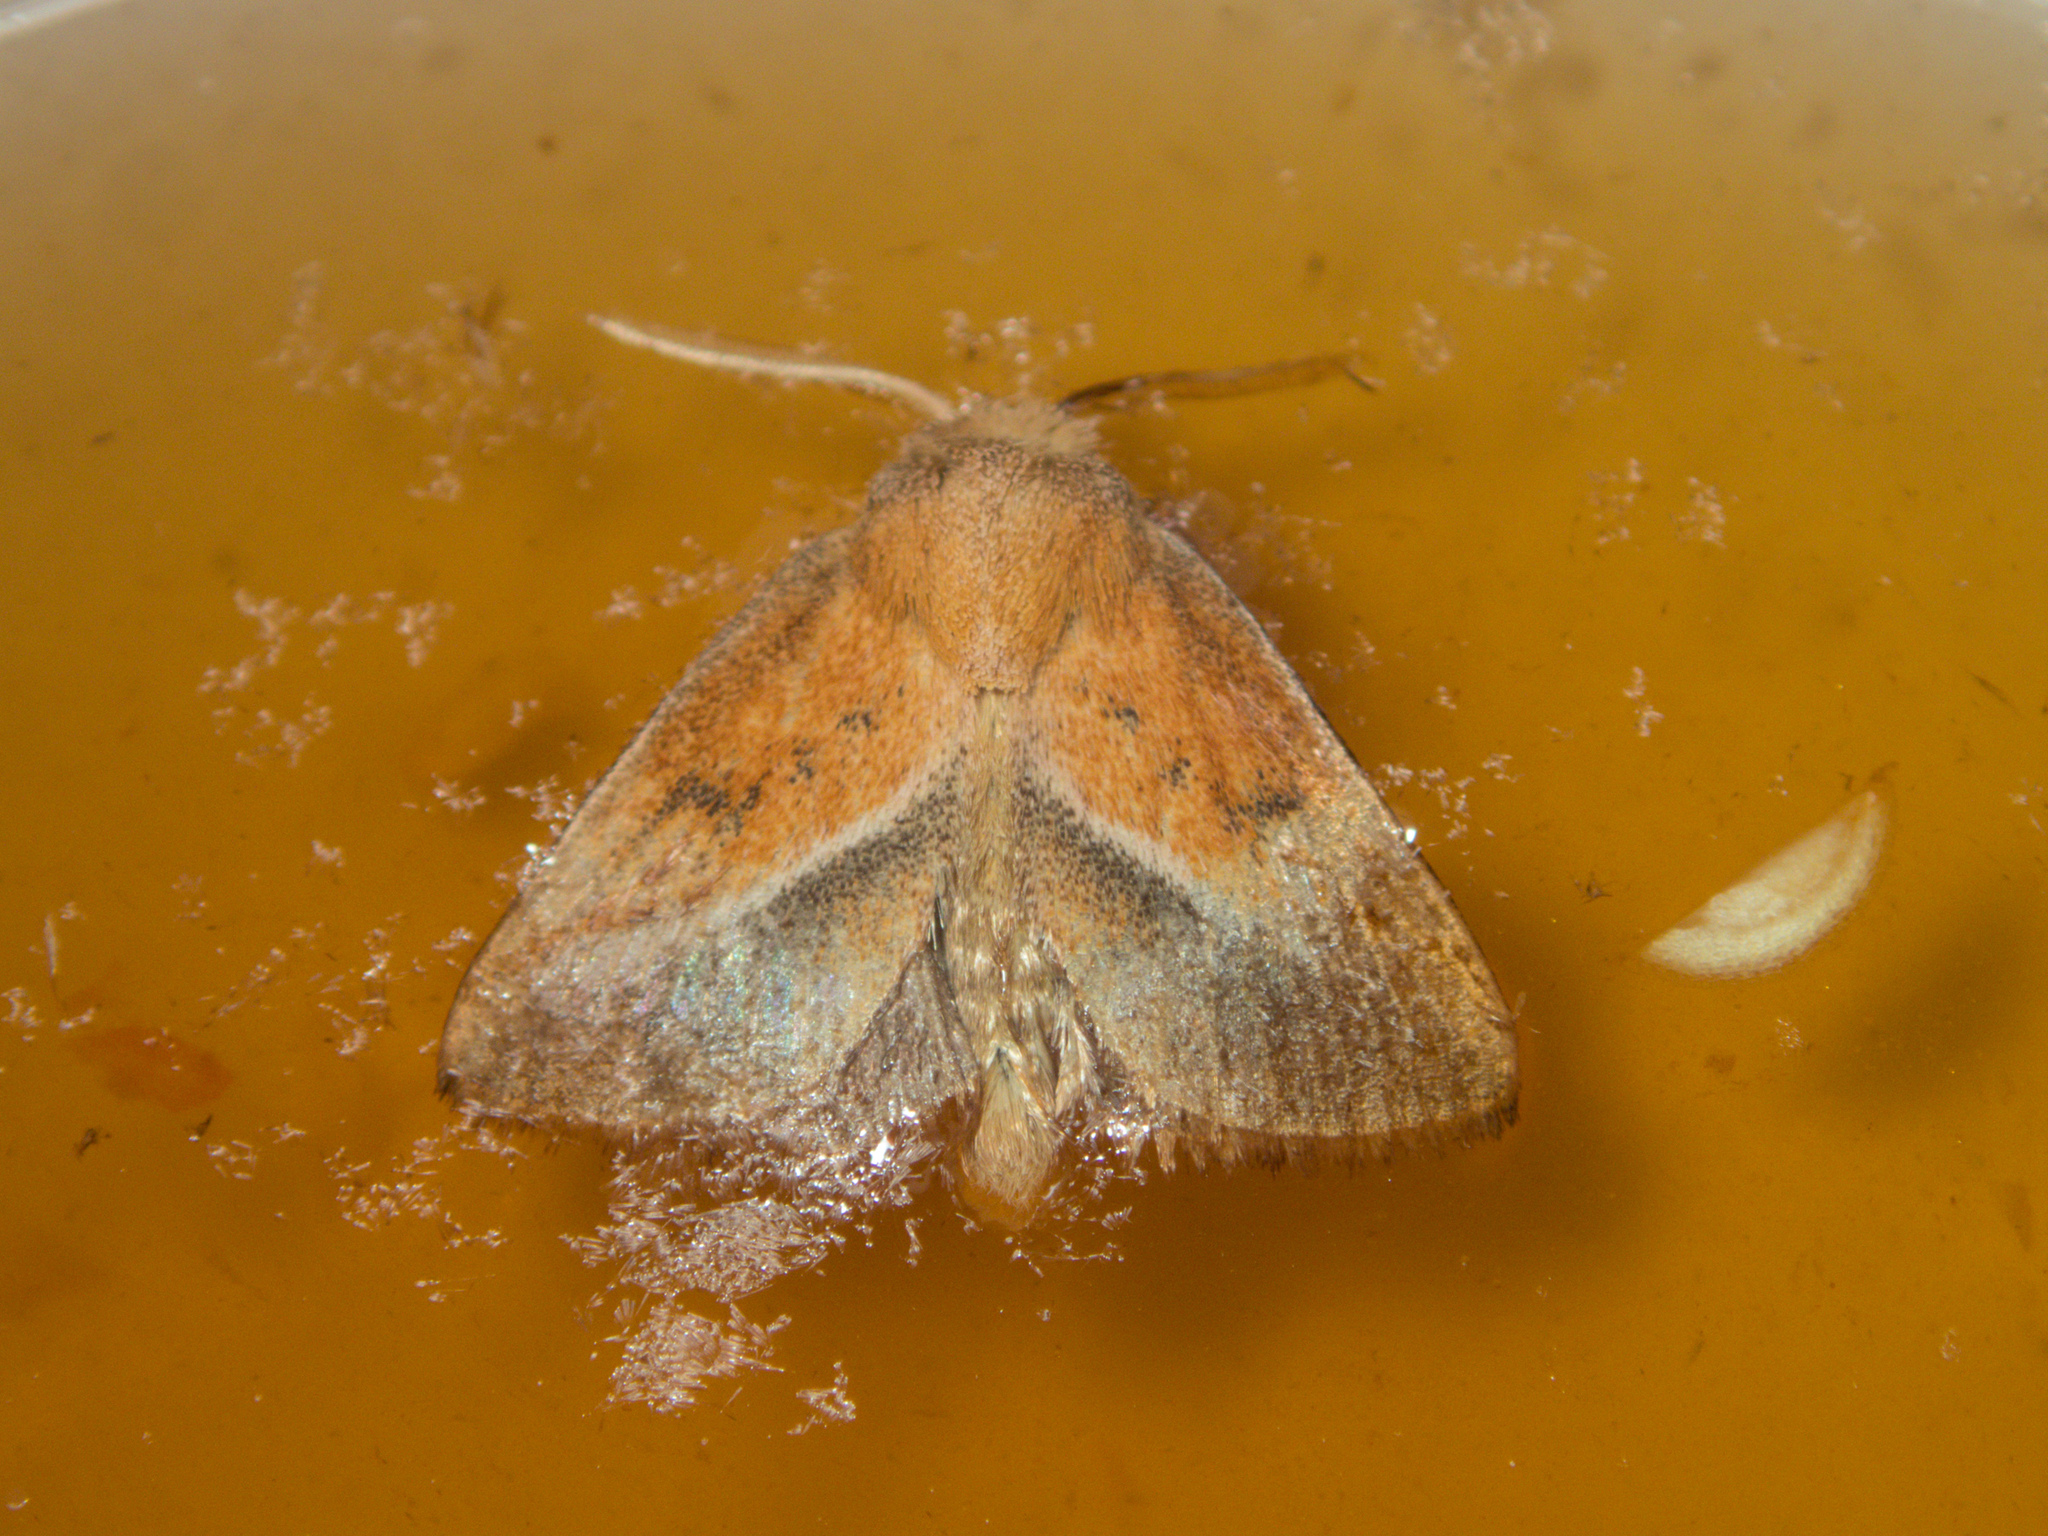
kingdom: Animalia
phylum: Arthropoda
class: Insecta
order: Lepidoptera
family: Limacodidae
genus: Oxyplax
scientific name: Oxyplax pallivitta
